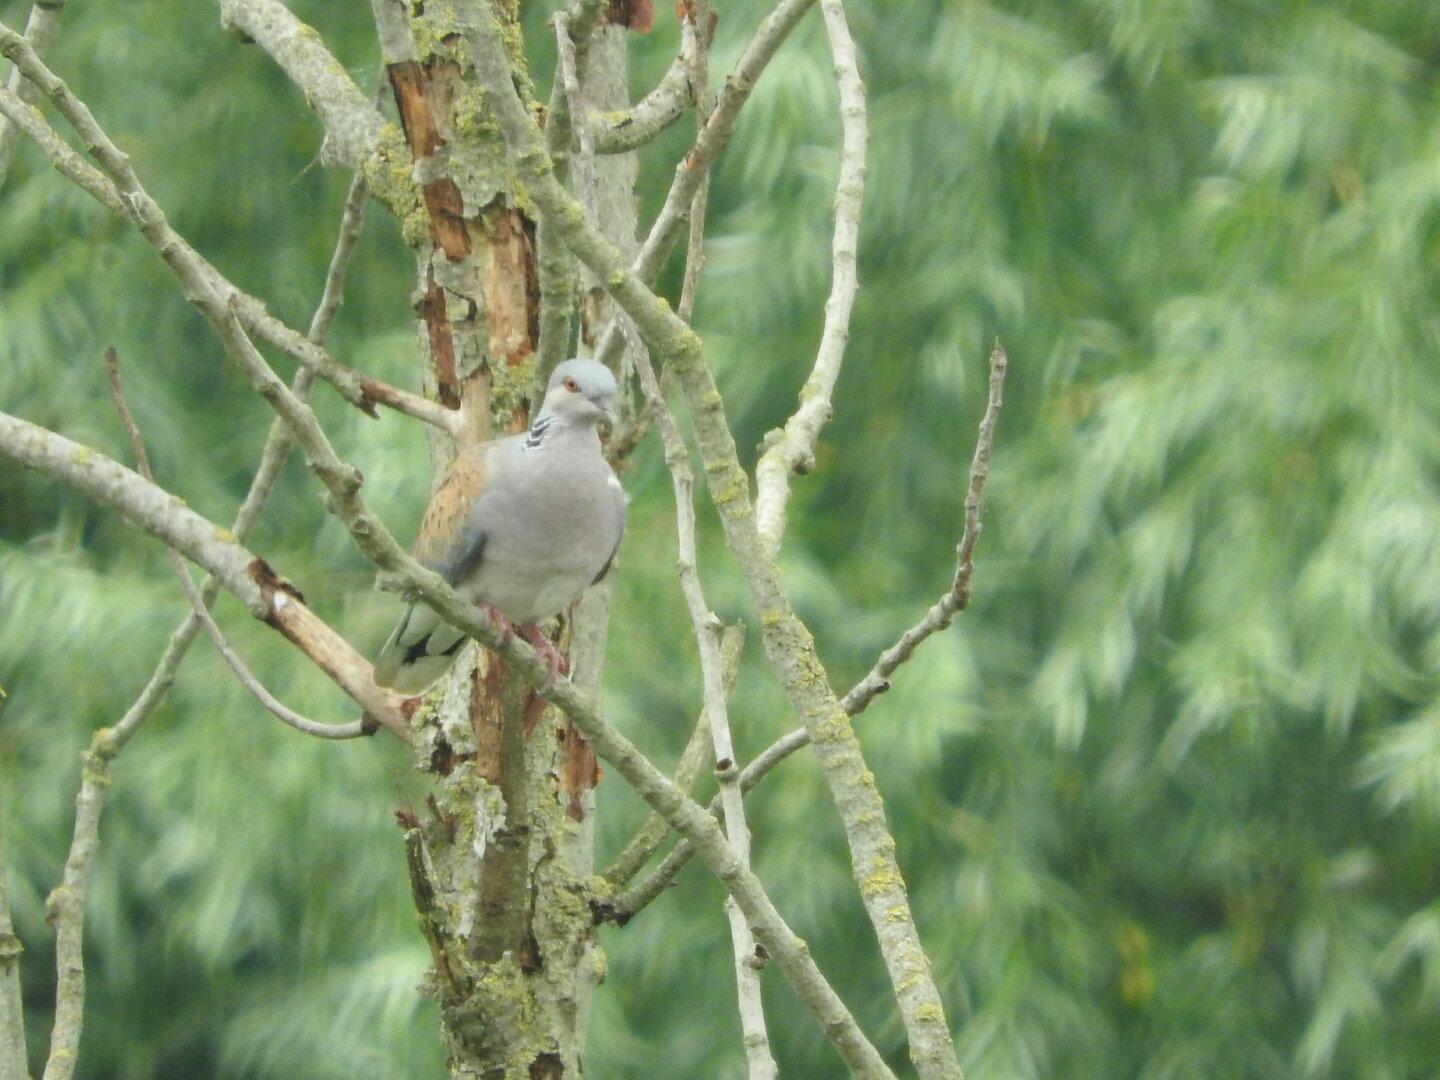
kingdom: Animalia
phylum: Chordata
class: Aves
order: Columbiformes
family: Columbidae
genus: Streptopelia
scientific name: Streptopelia turtur
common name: European turtle dove
